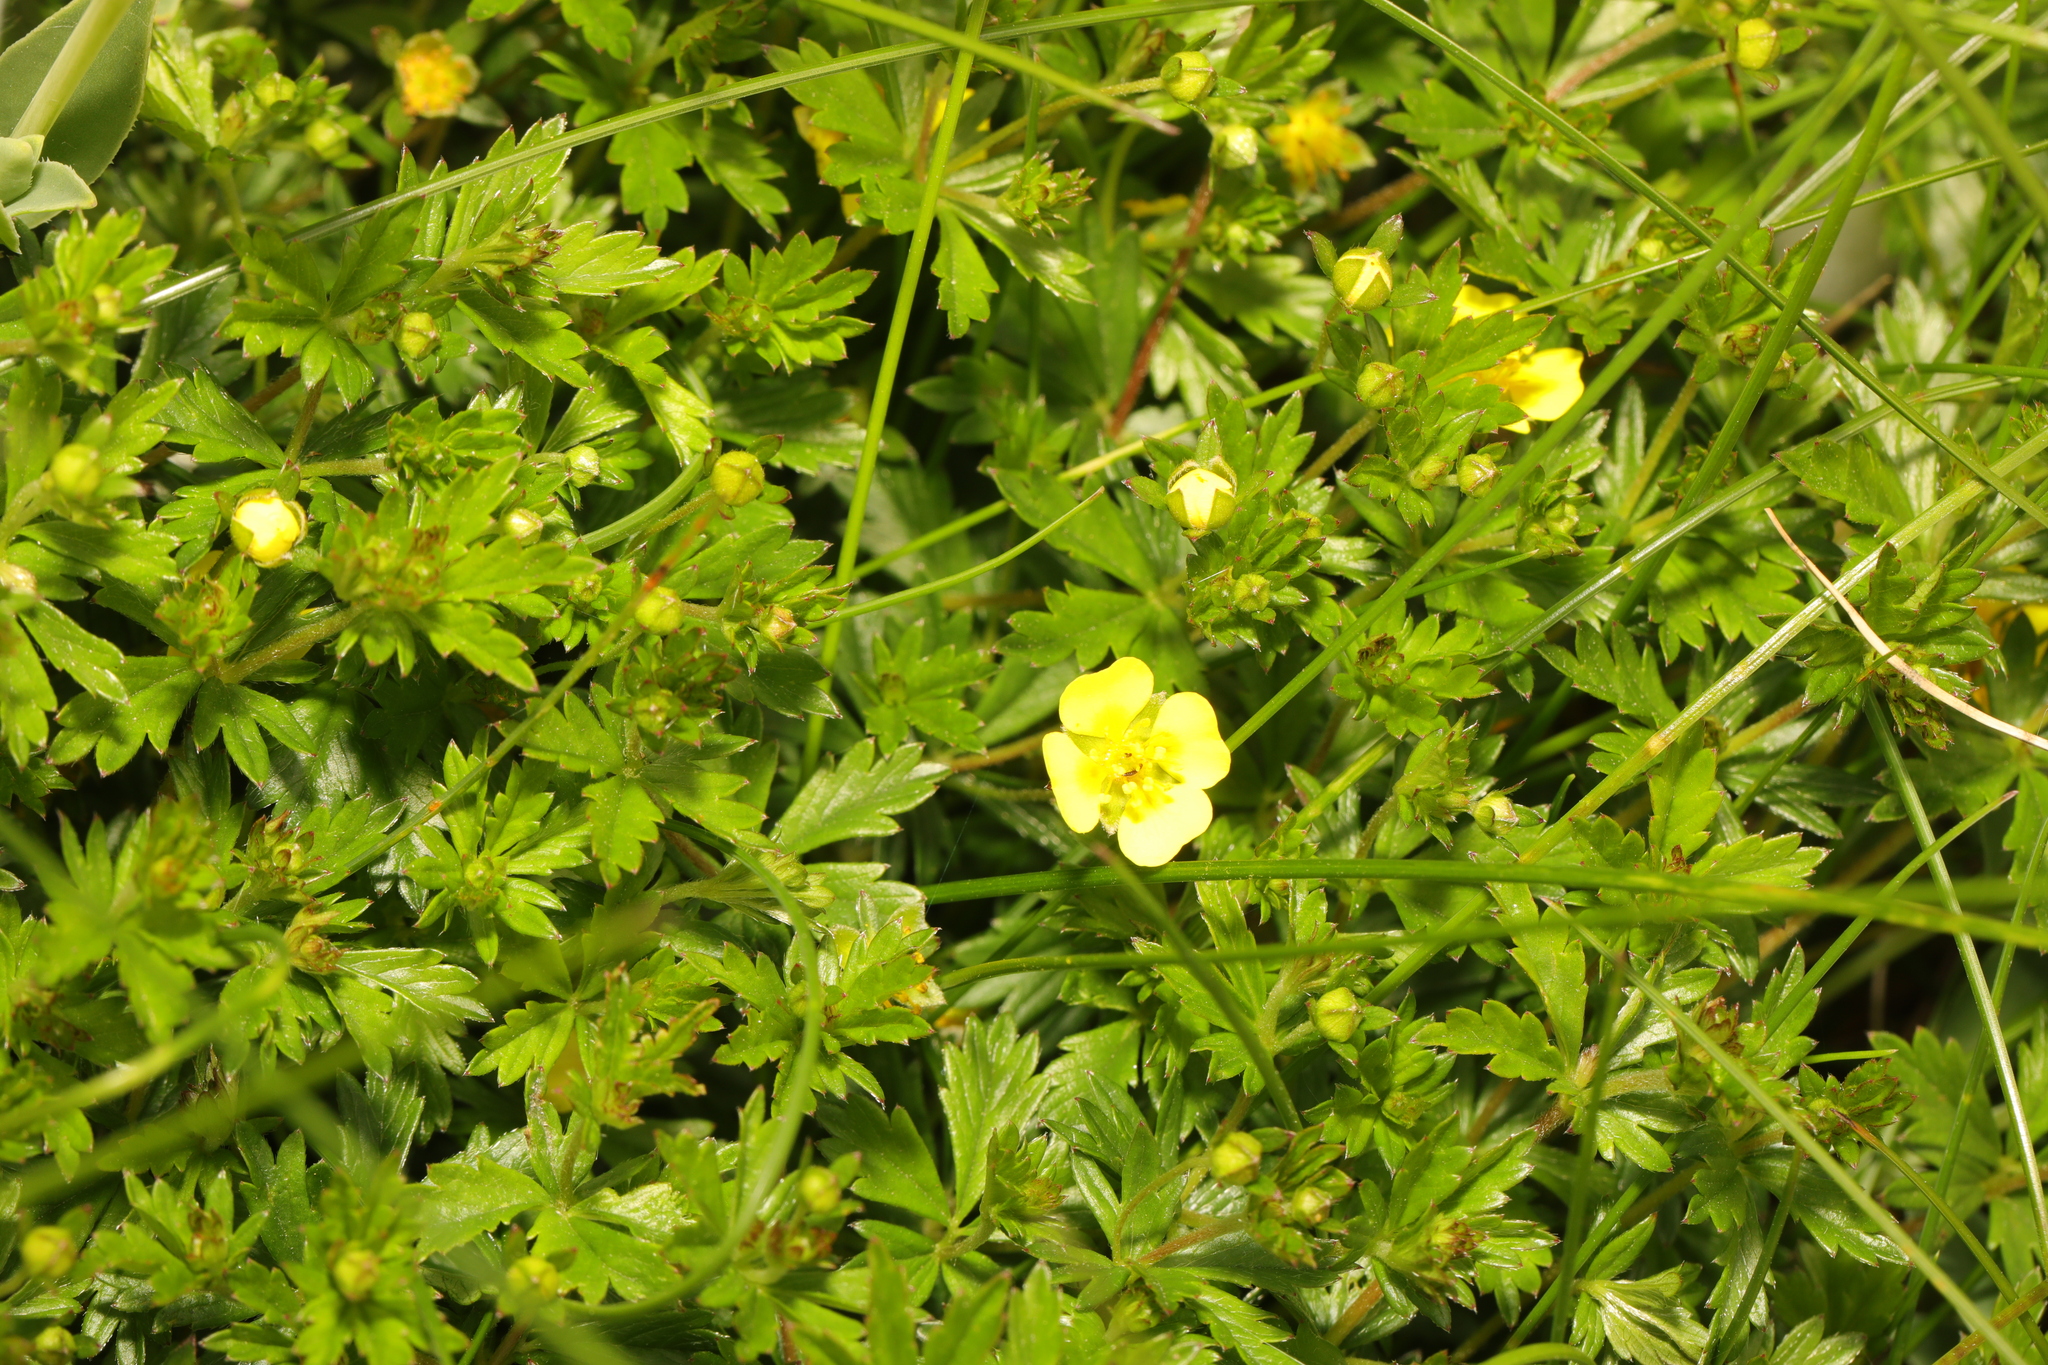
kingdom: Plantae
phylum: Tracheophyta
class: Magnoliopsida
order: Rosales
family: Rosaceae
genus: Potentilla
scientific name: Potentilla erecta
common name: Tormentil
